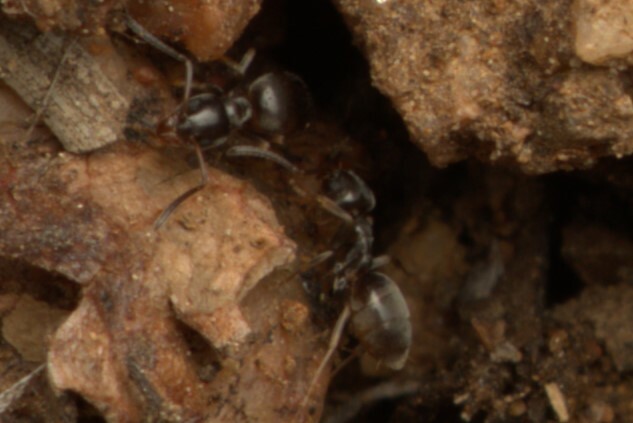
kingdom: Animalia
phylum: Arthropoda
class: Insecta
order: Hymenoptera
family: Formicidae
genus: Tapinoma
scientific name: Tapinoma sessile
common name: Odorous house ant
